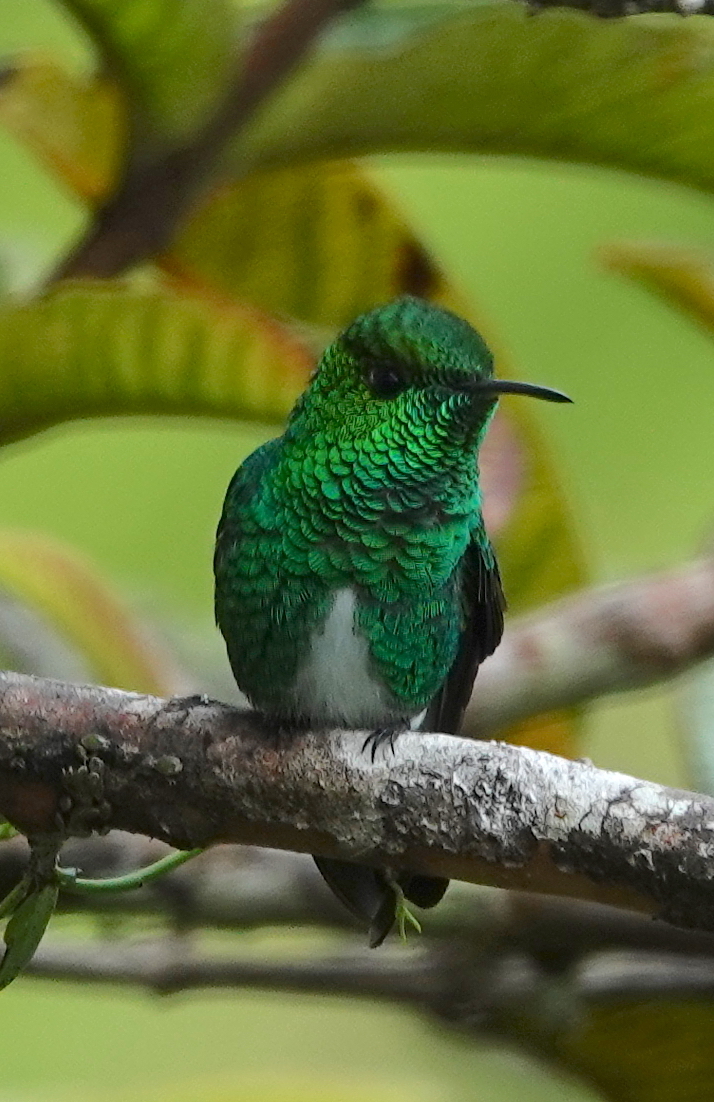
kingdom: Animalia
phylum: Chordata
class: Aves
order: Apodiformes
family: Trochilidae
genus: Microchera
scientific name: Microchera chionura
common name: White-tailed emerald
